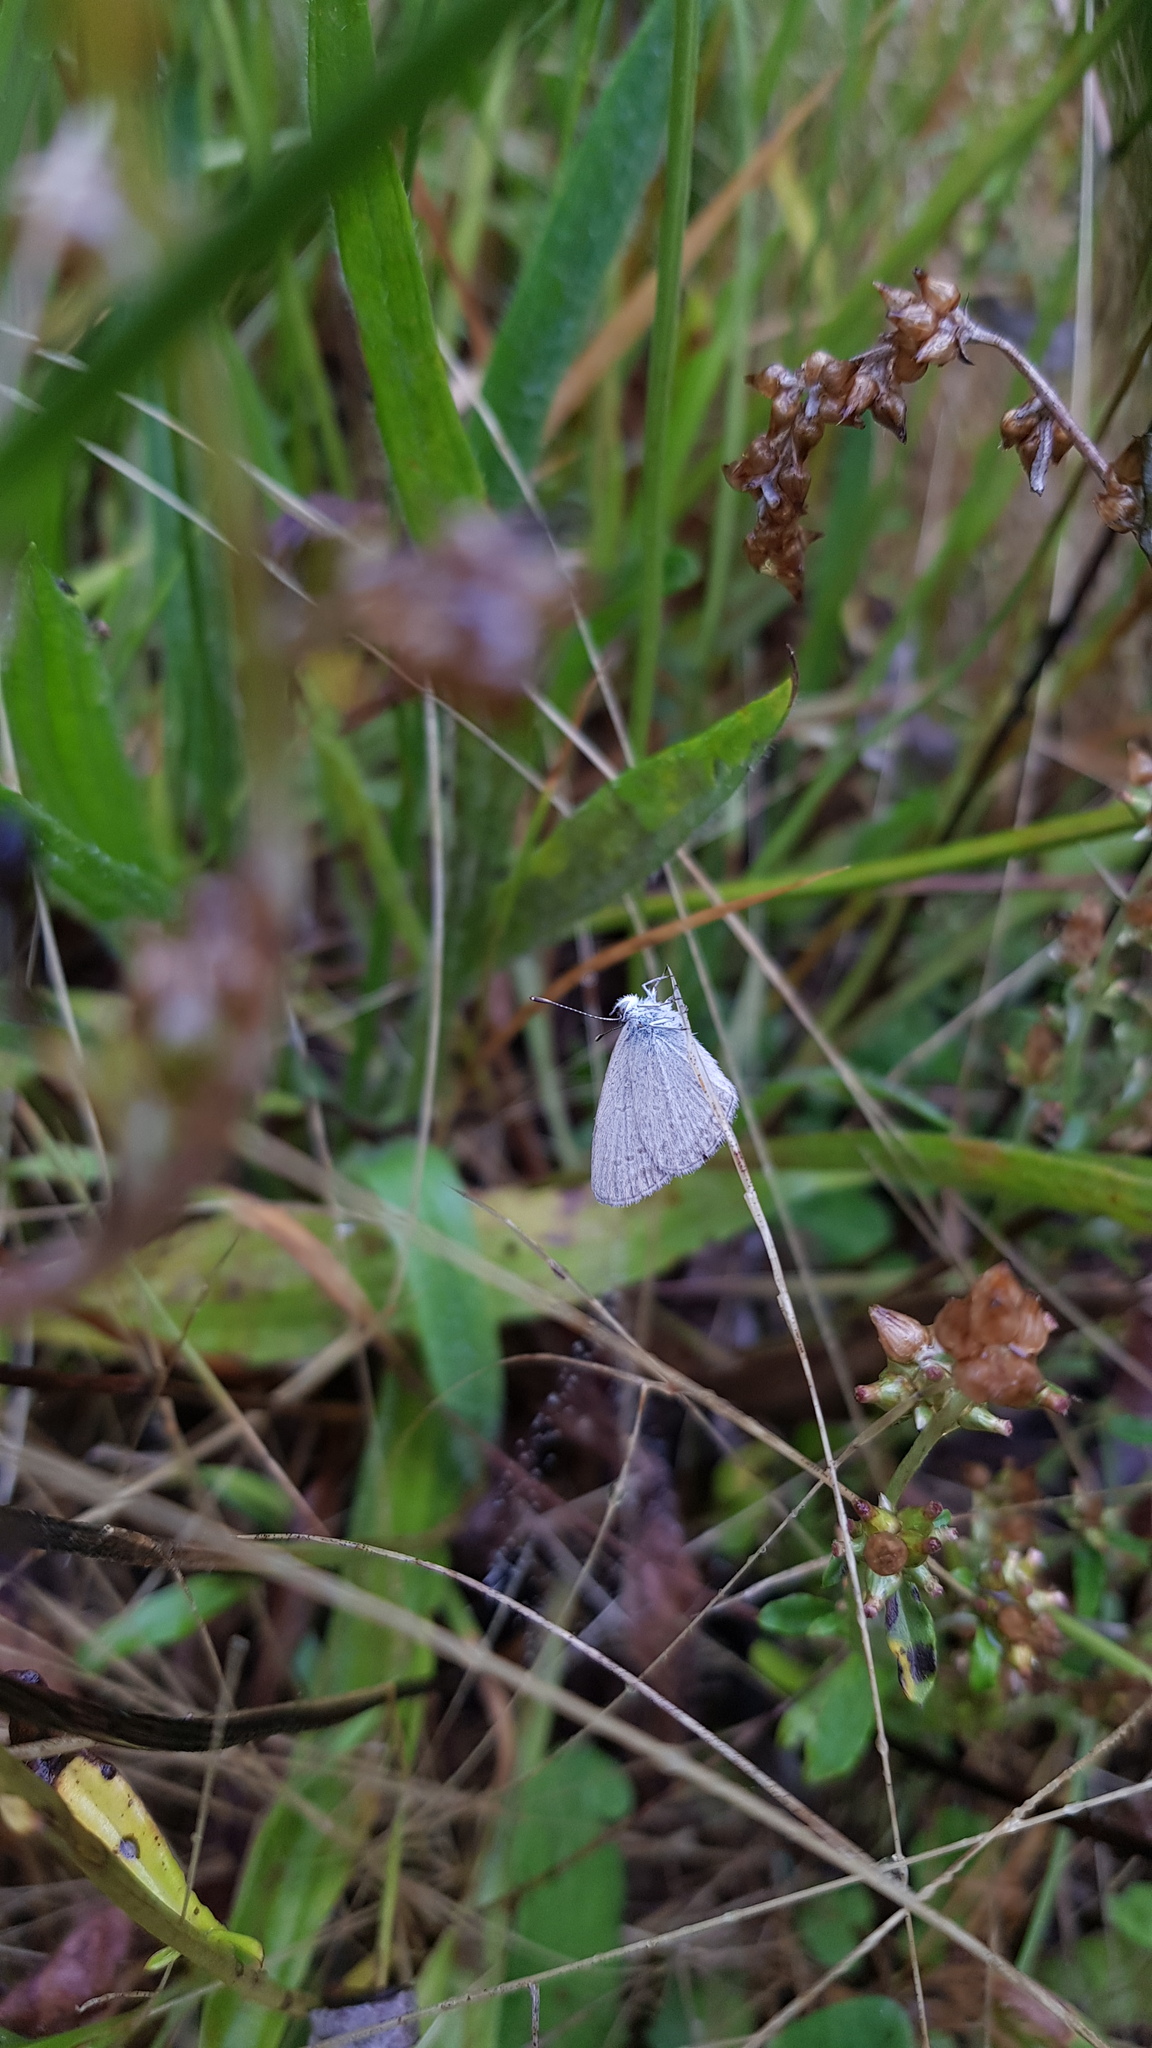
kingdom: Animalia
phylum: Arthropoda
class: Insecta
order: Lepidoptera
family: Lycaenidae
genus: Zizina
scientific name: Zizina labradus
